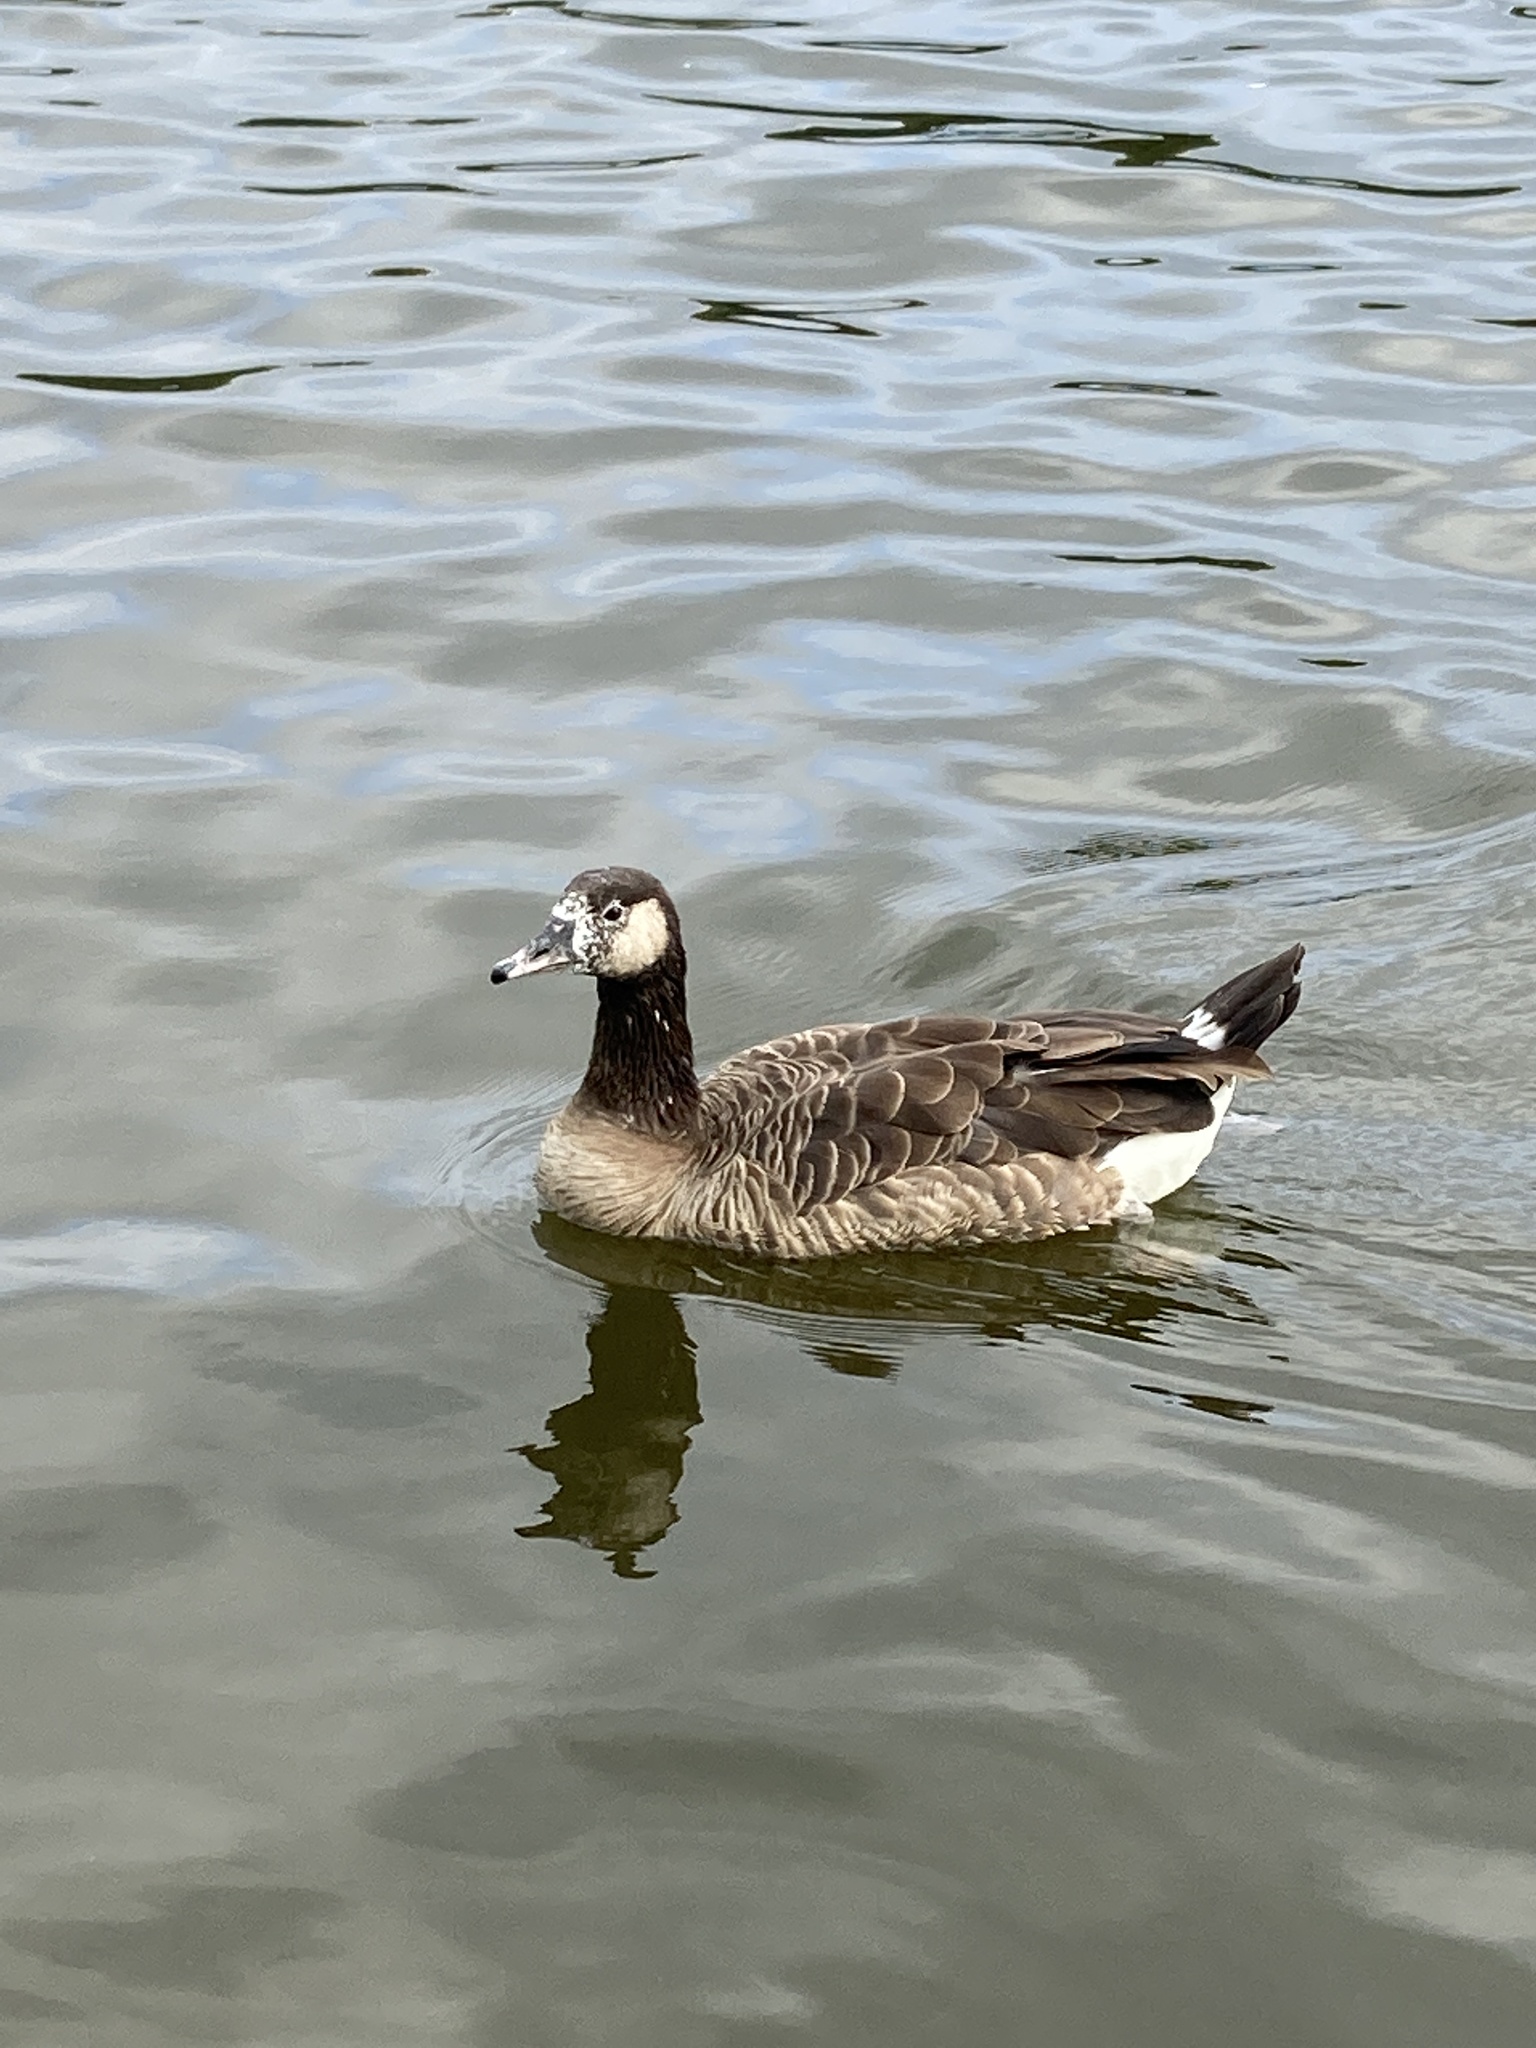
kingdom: Animalia
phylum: Chordata
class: Aves
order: Anseriformes
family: Anatidae
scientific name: Anatidae
